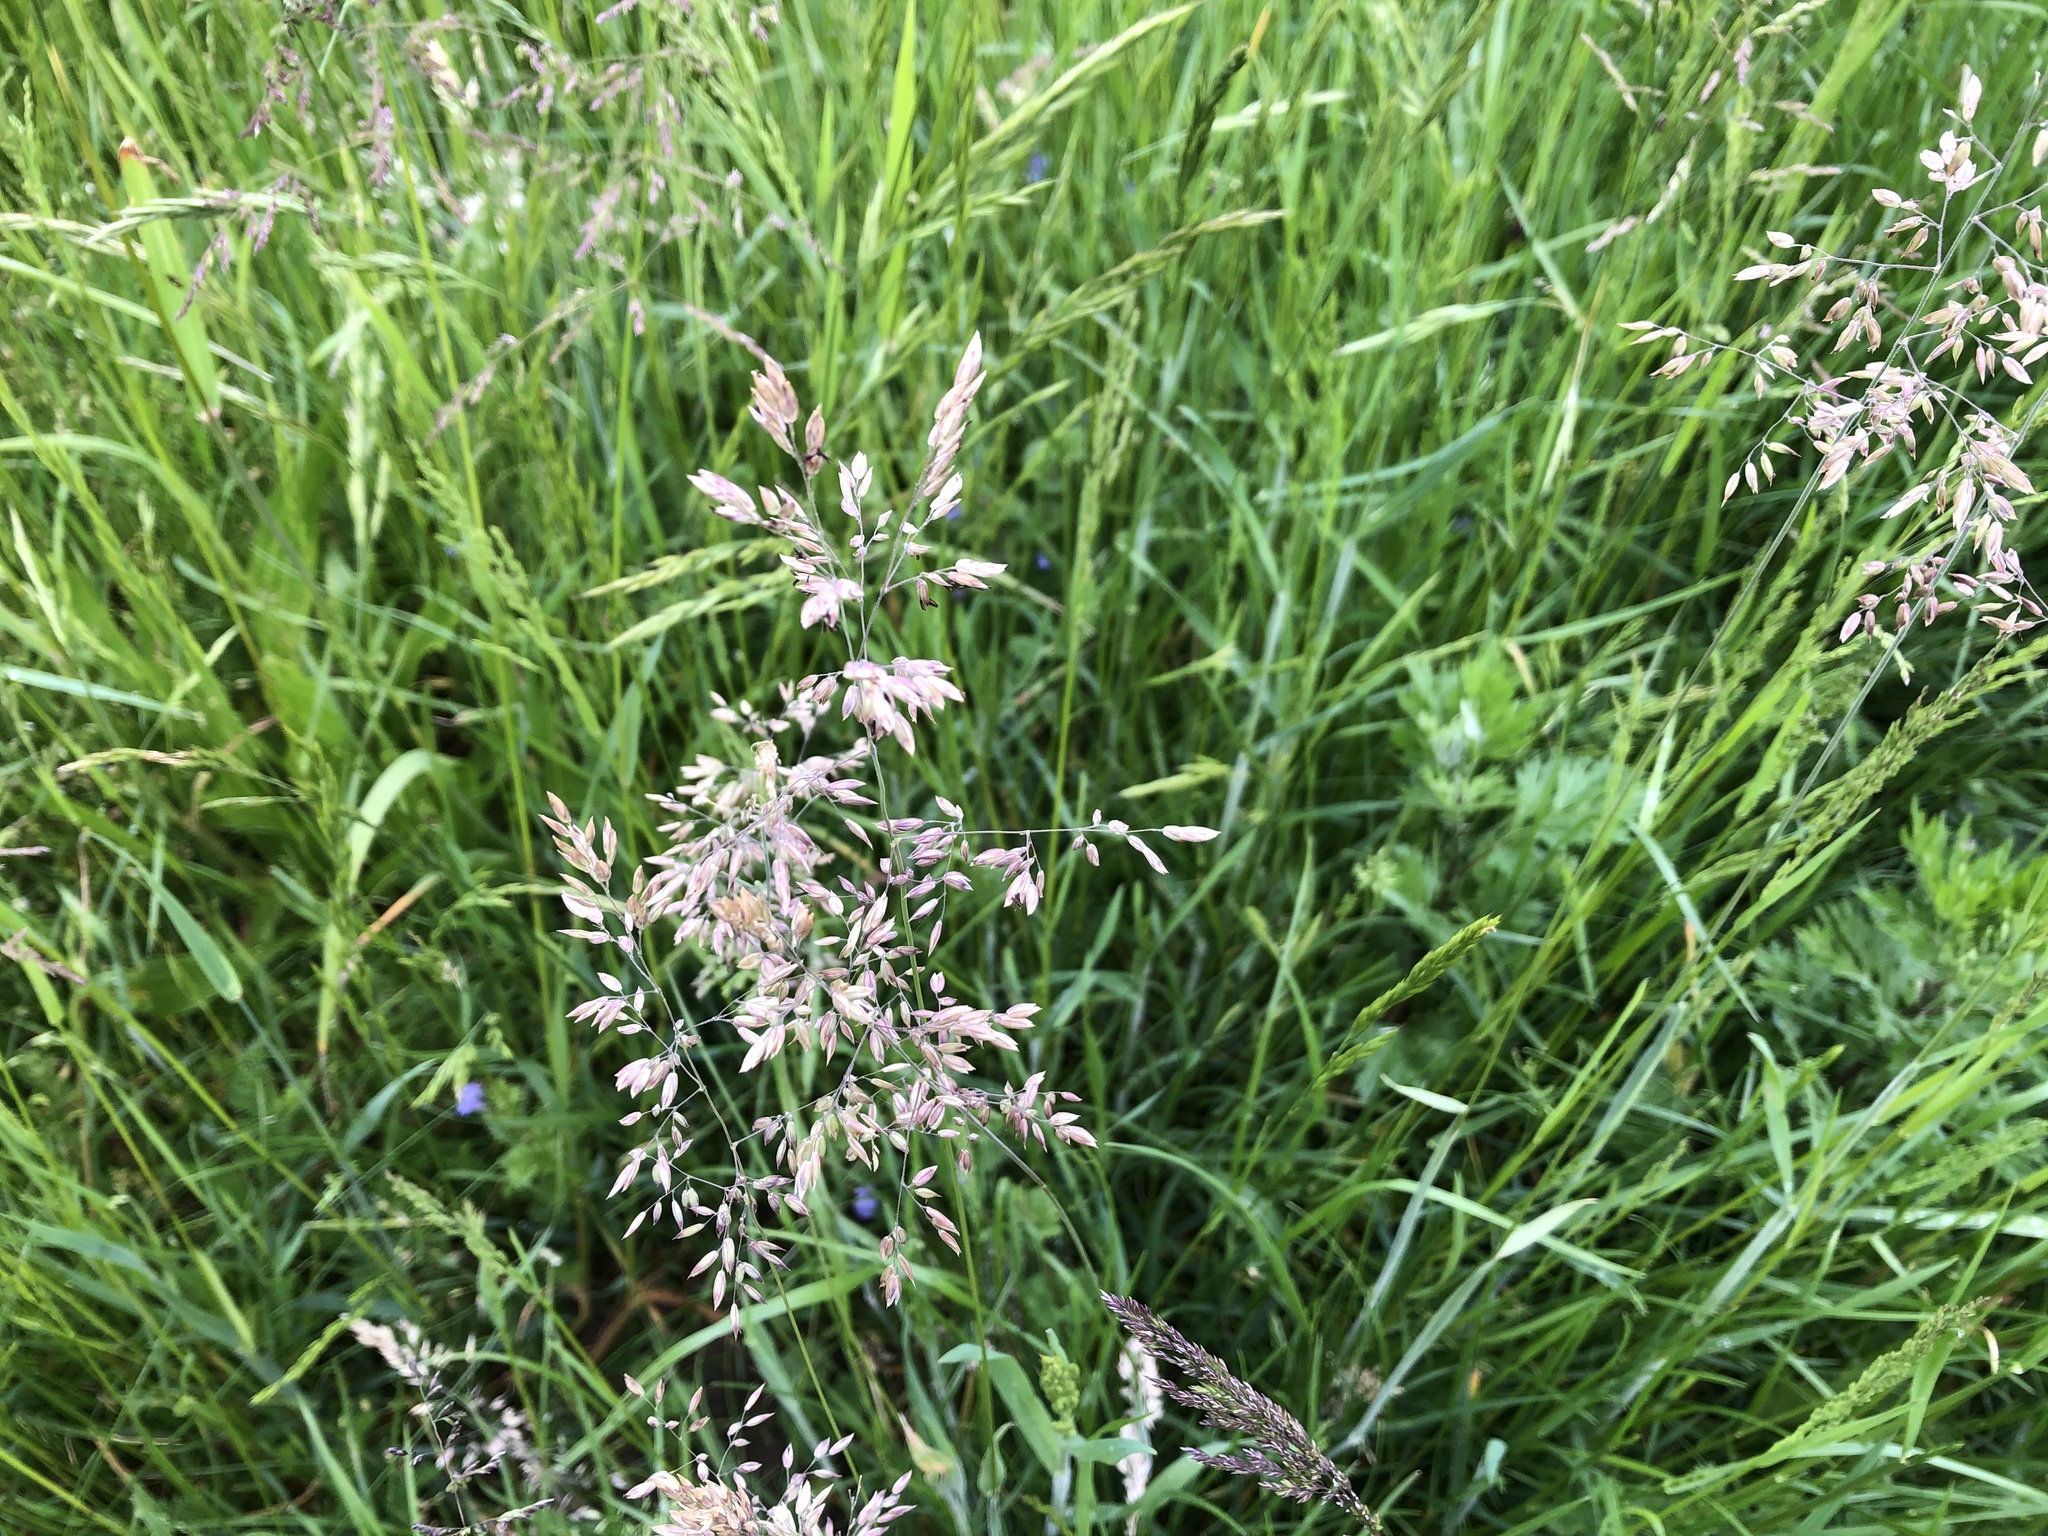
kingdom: Plantae
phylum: Tracheophyta
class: Liliopsida
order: Poales
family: Poaceae
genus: Holcus
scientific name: Holcus lanatus
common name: Yorkshire-fog
